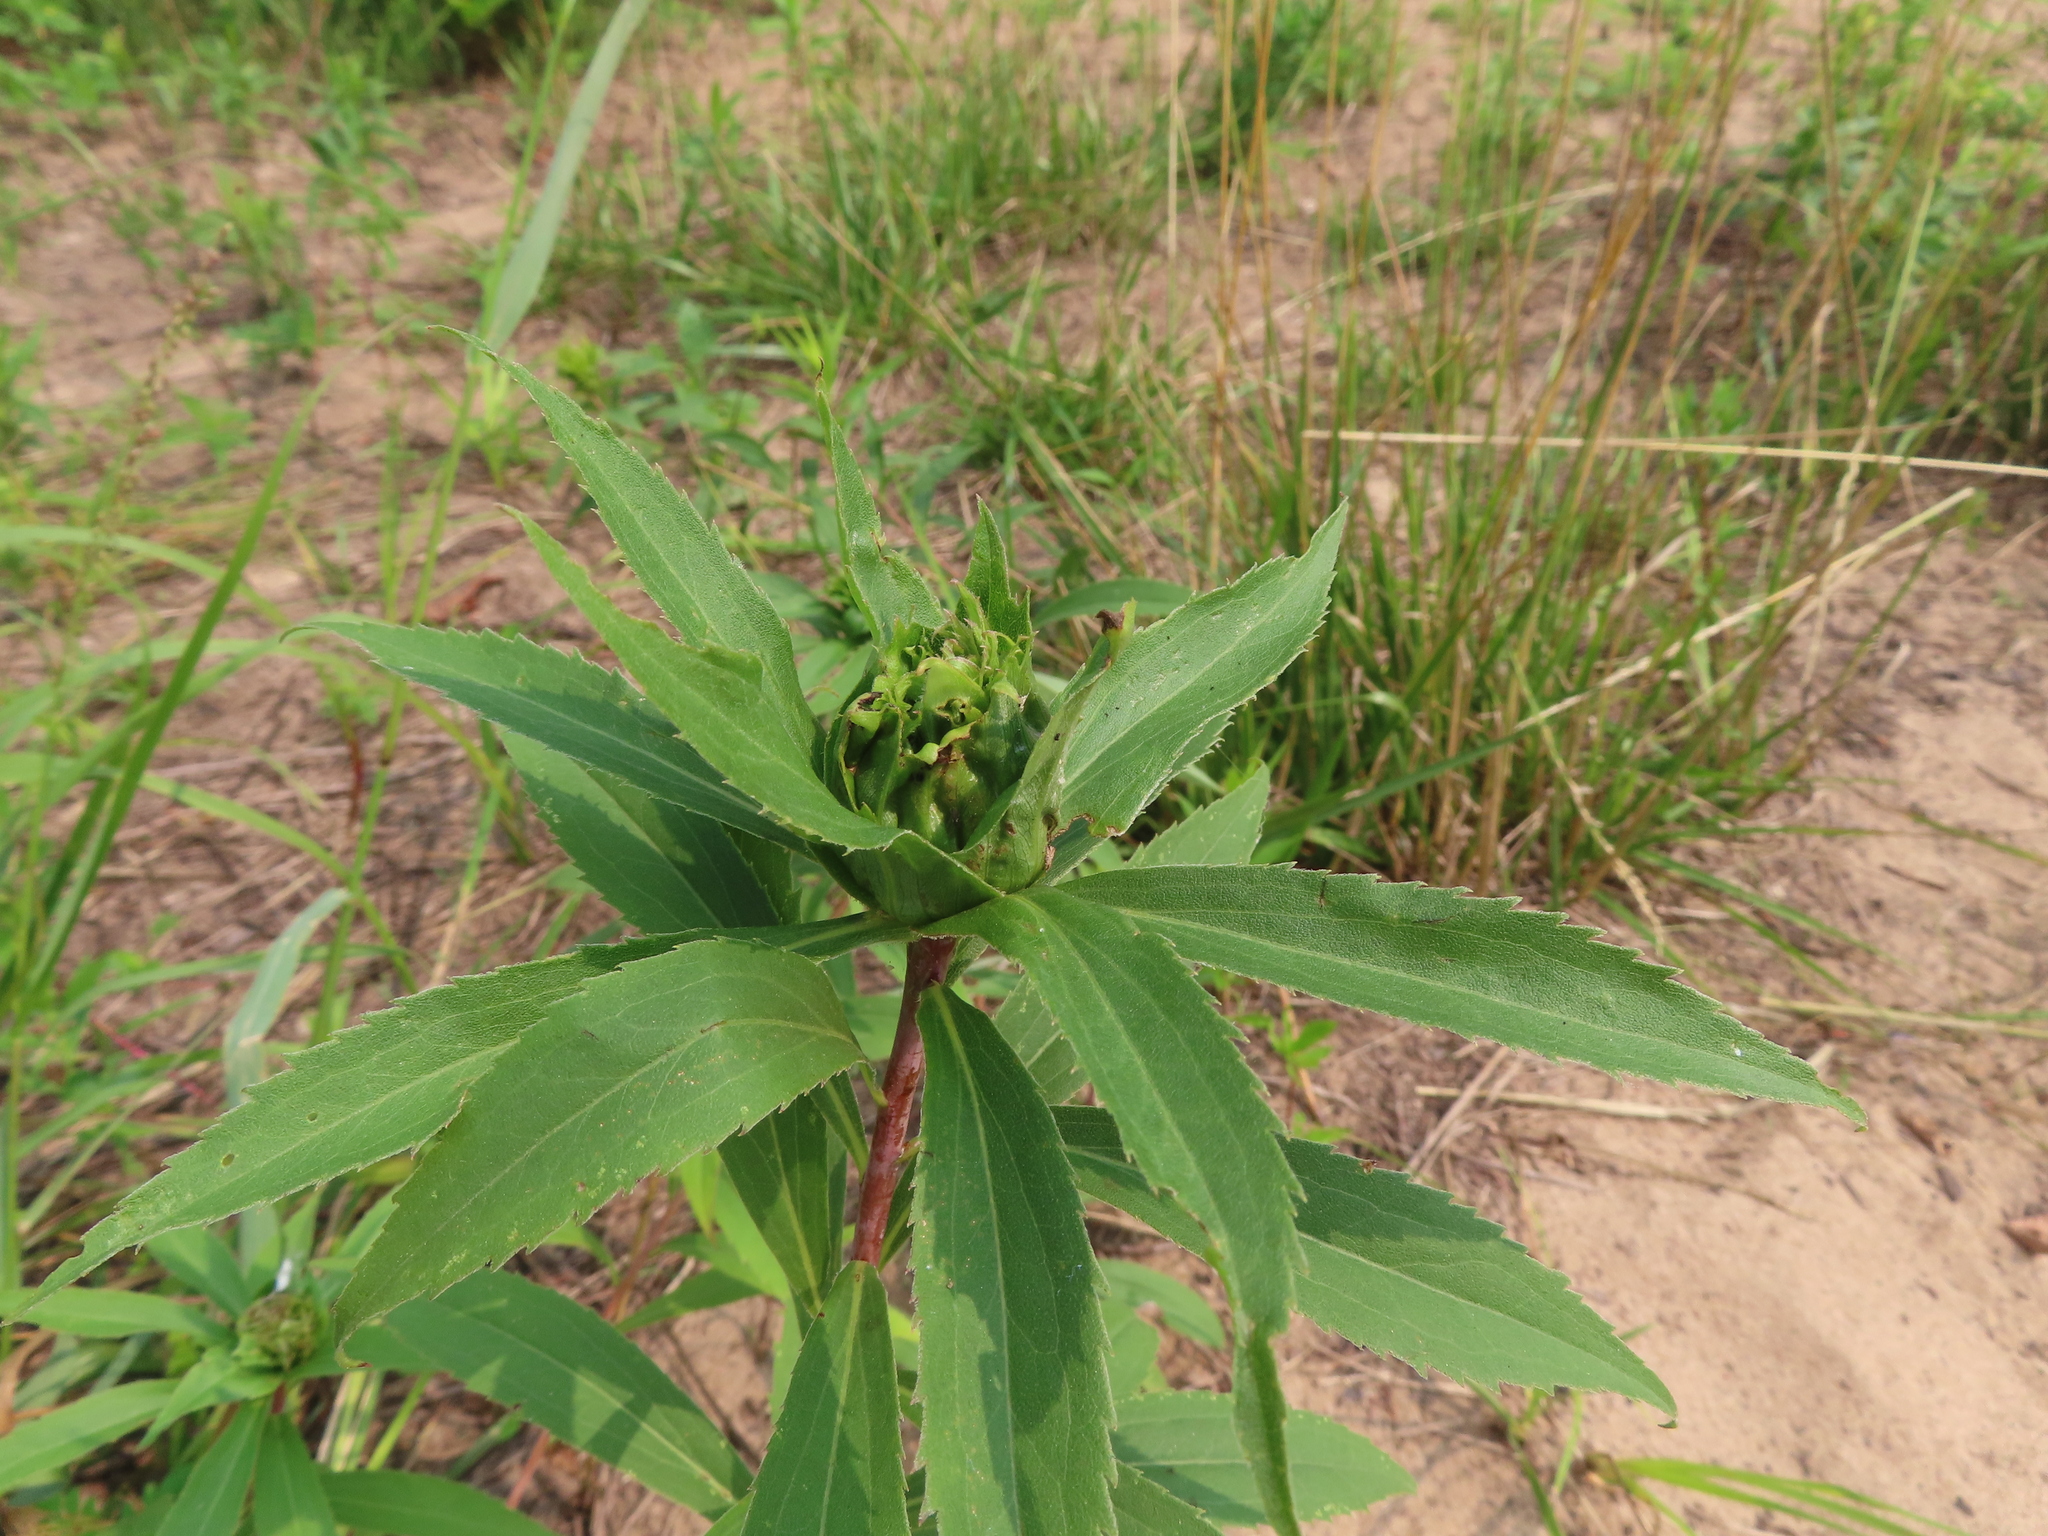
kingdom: Animalia
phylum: Arthropoda
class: Insecta
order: Diptera
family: Cecidomyiidae
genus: Rhopalomyia
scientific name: Rhopalomyia capitata
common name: Giant goldenrod bunch gall midge
